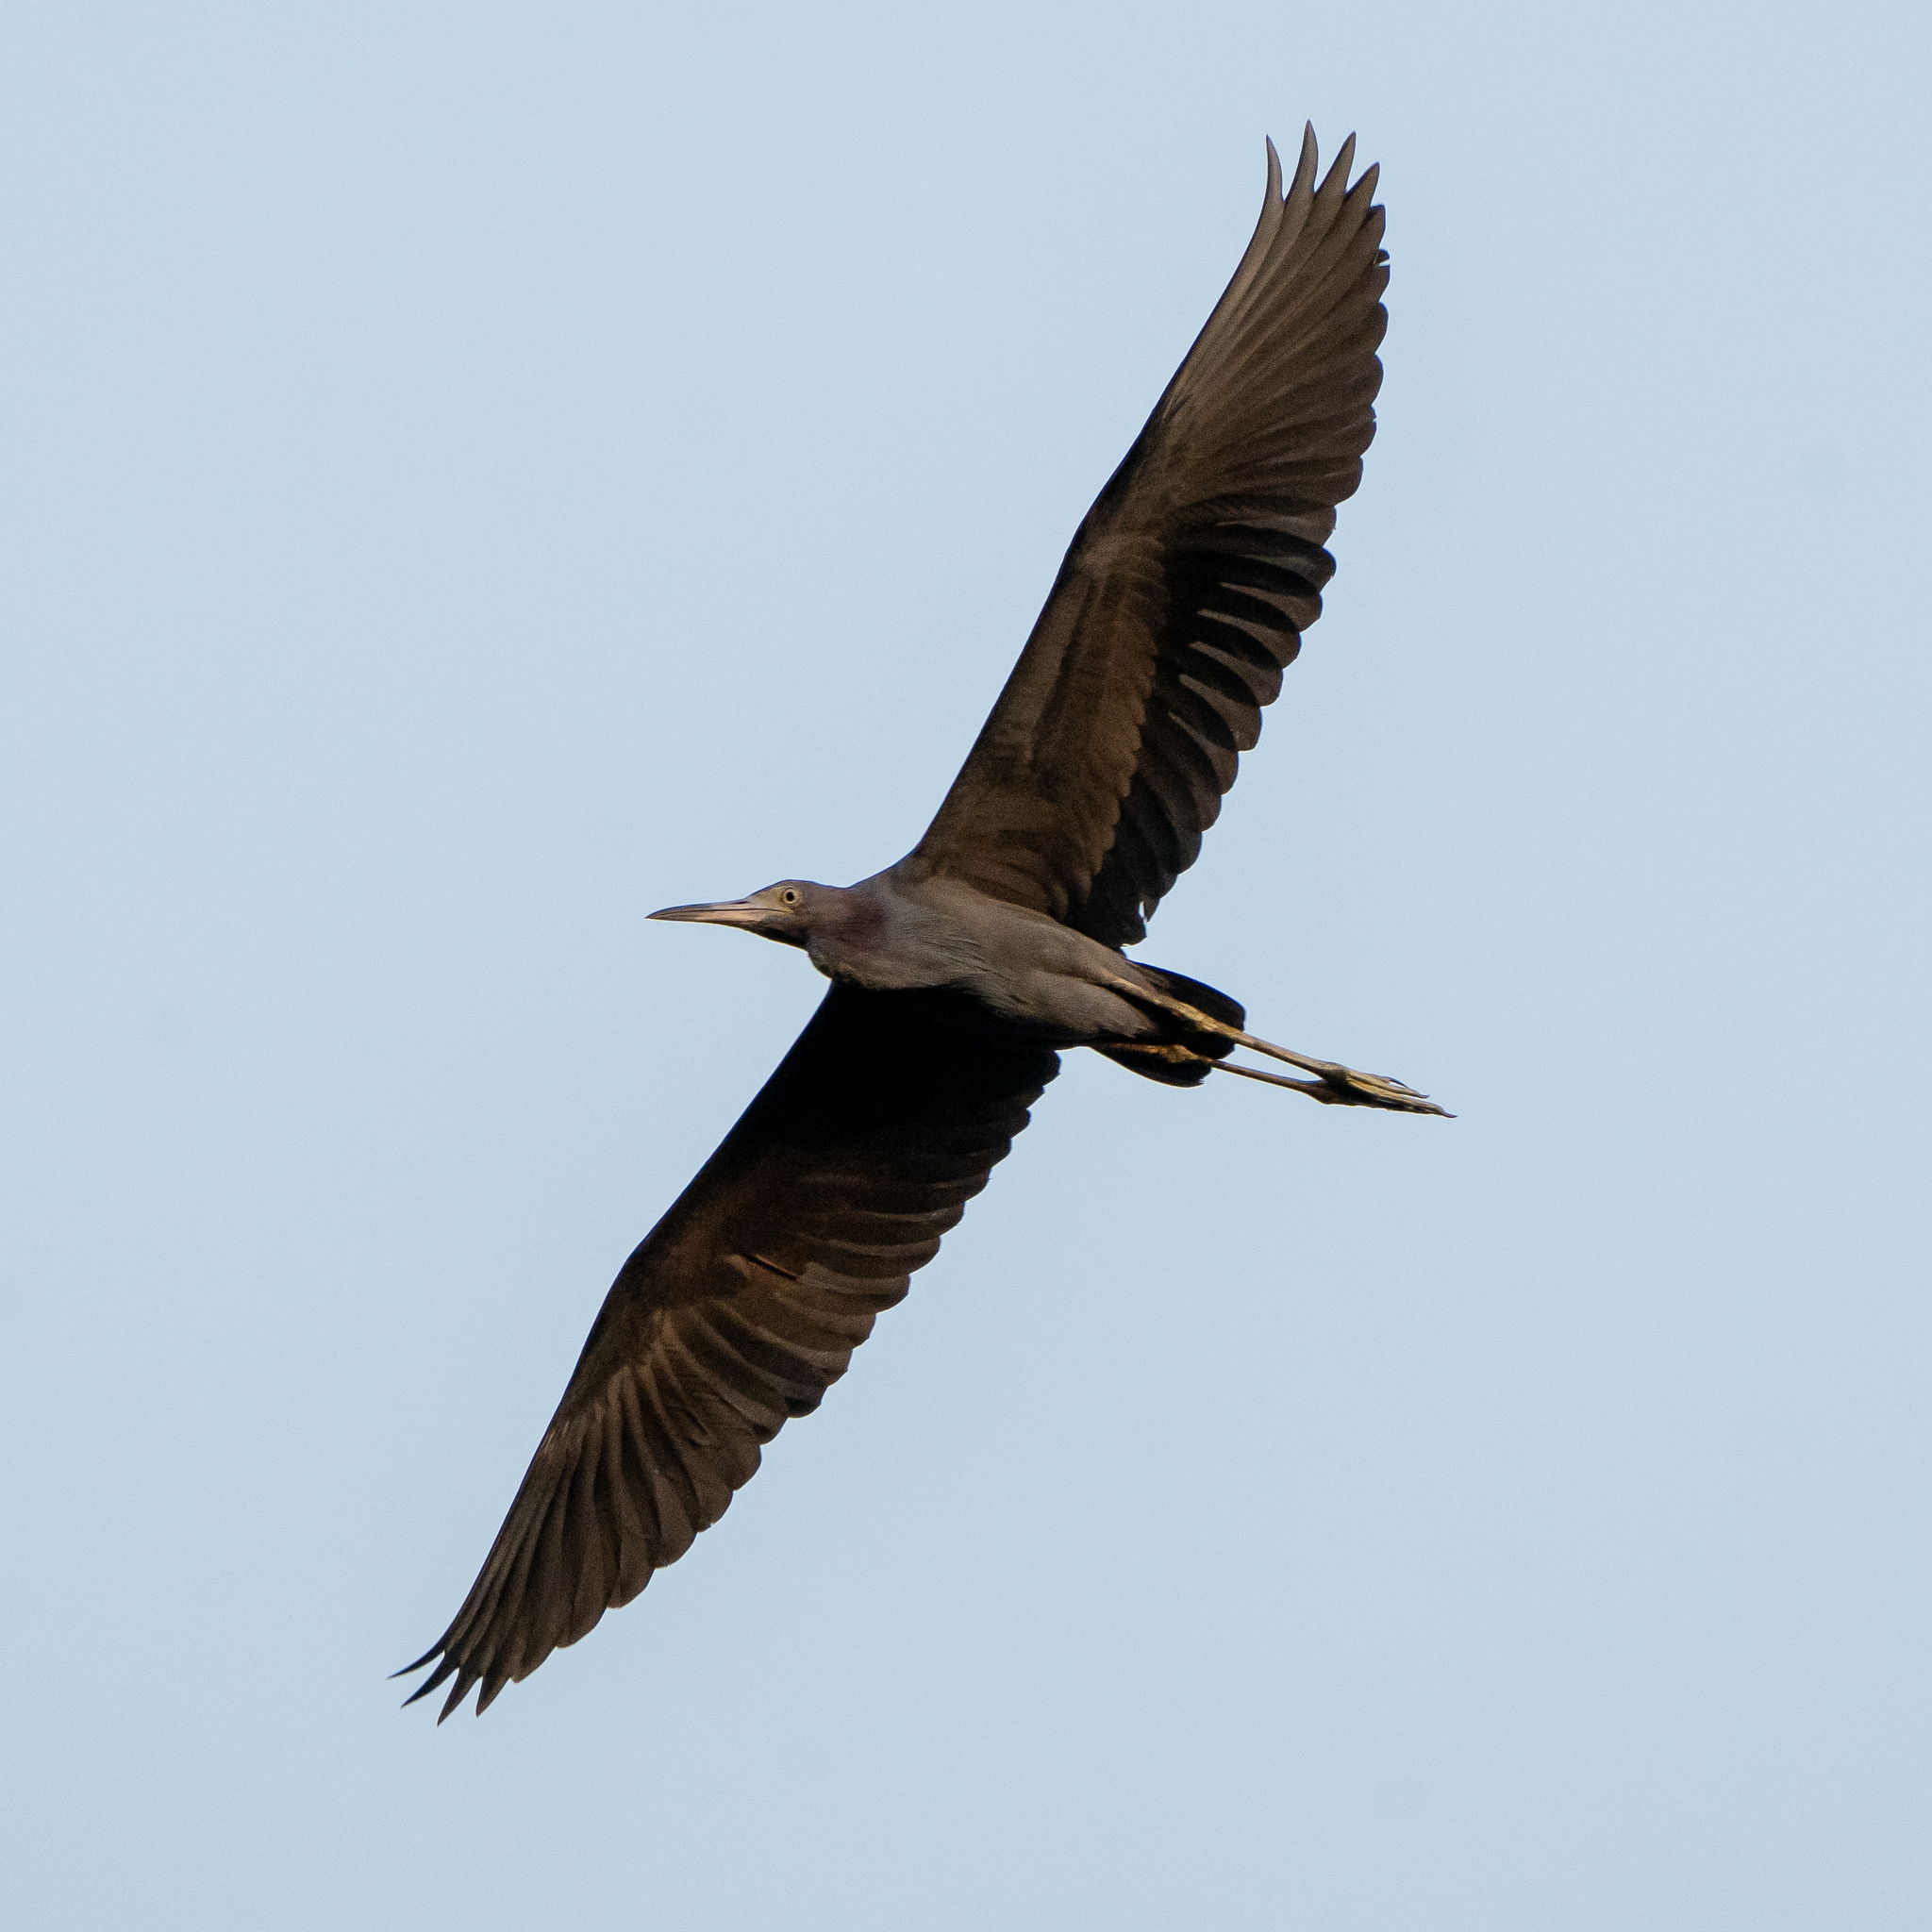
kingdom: Animalia
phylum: Chordata
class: Aves
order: Pelecaniformes
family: Ardeidae
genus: Egretta
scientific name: Egretta caerulea
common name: Little blue heron
